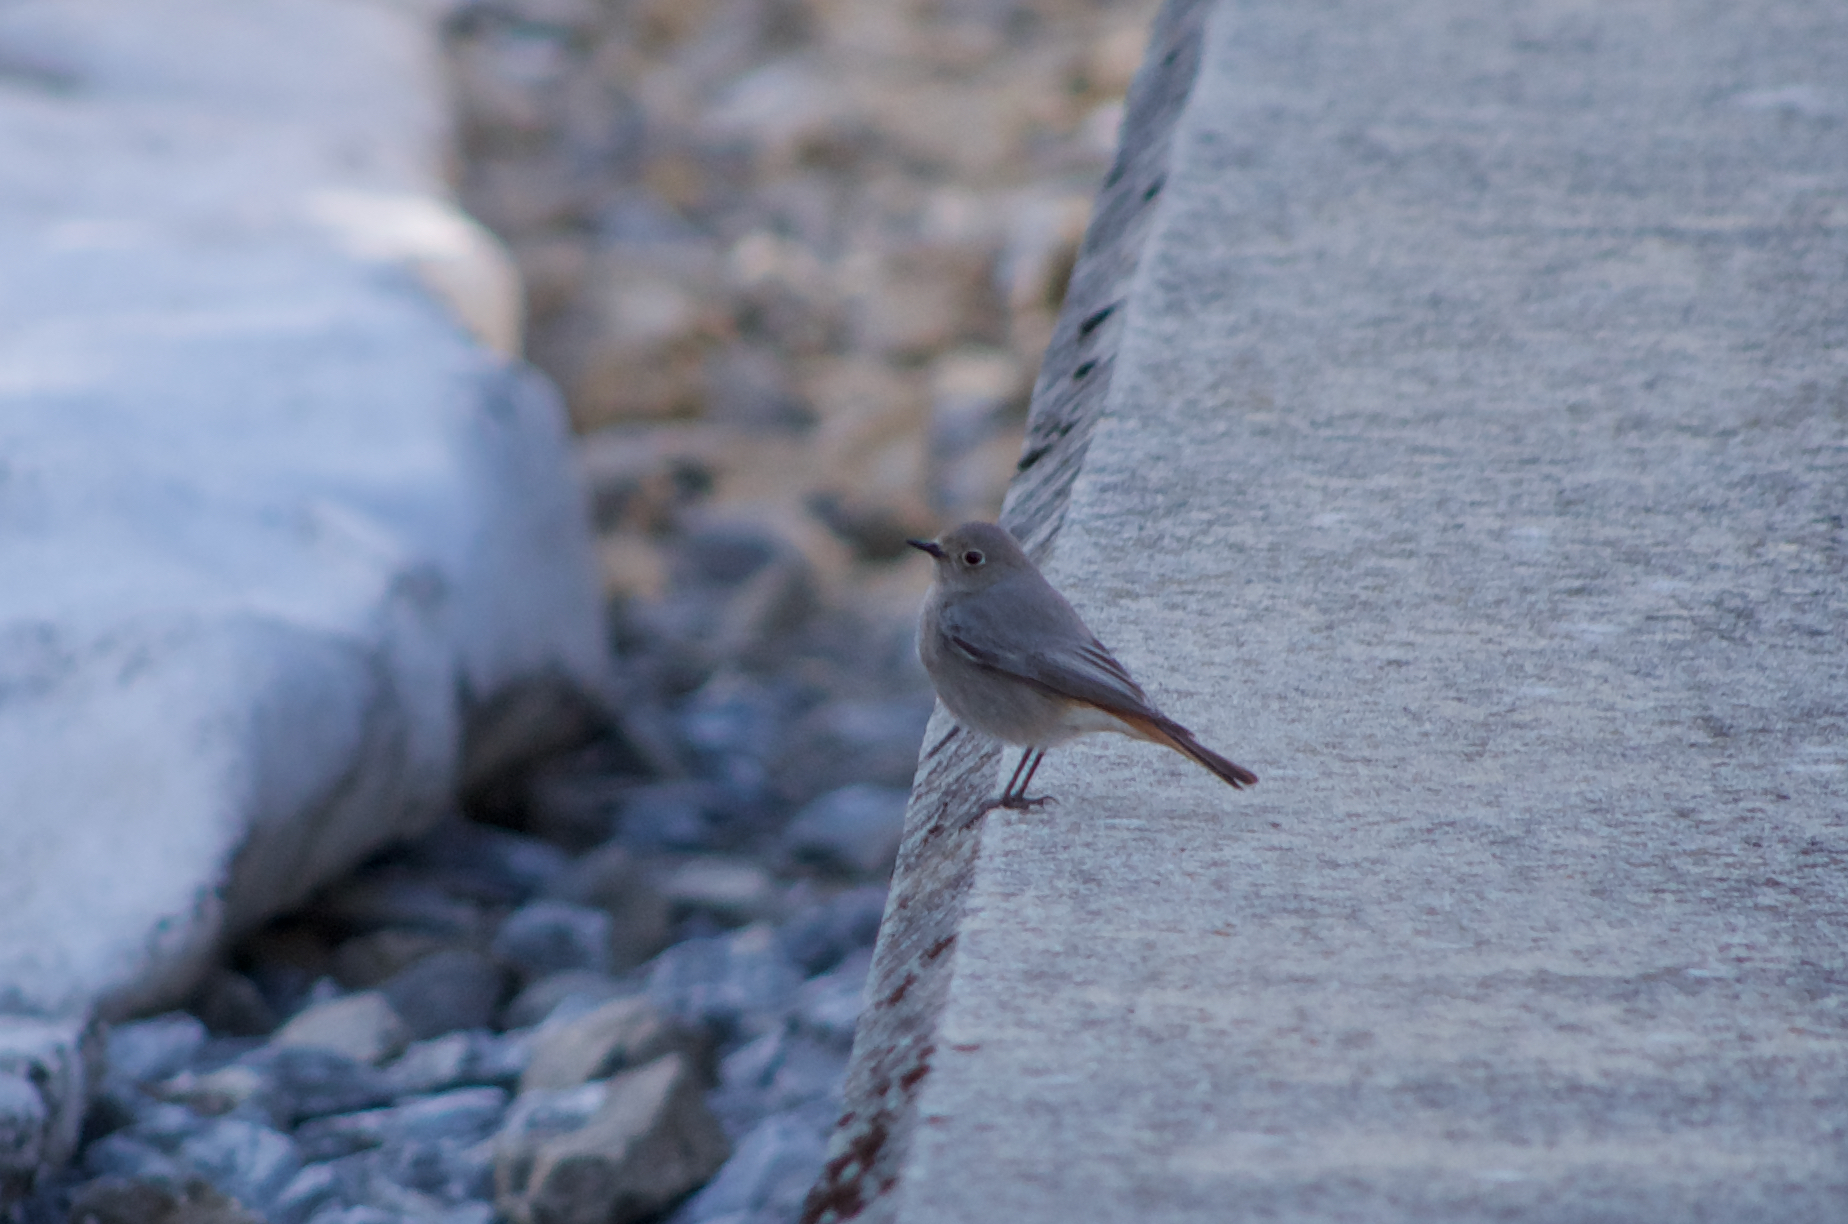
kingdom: Animalia
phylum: Chordata
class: Aves
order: Passeriformes
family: Muscicapidae
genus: Phoenicurus
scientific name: Phoenicurus ochruros
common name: Black redstart
